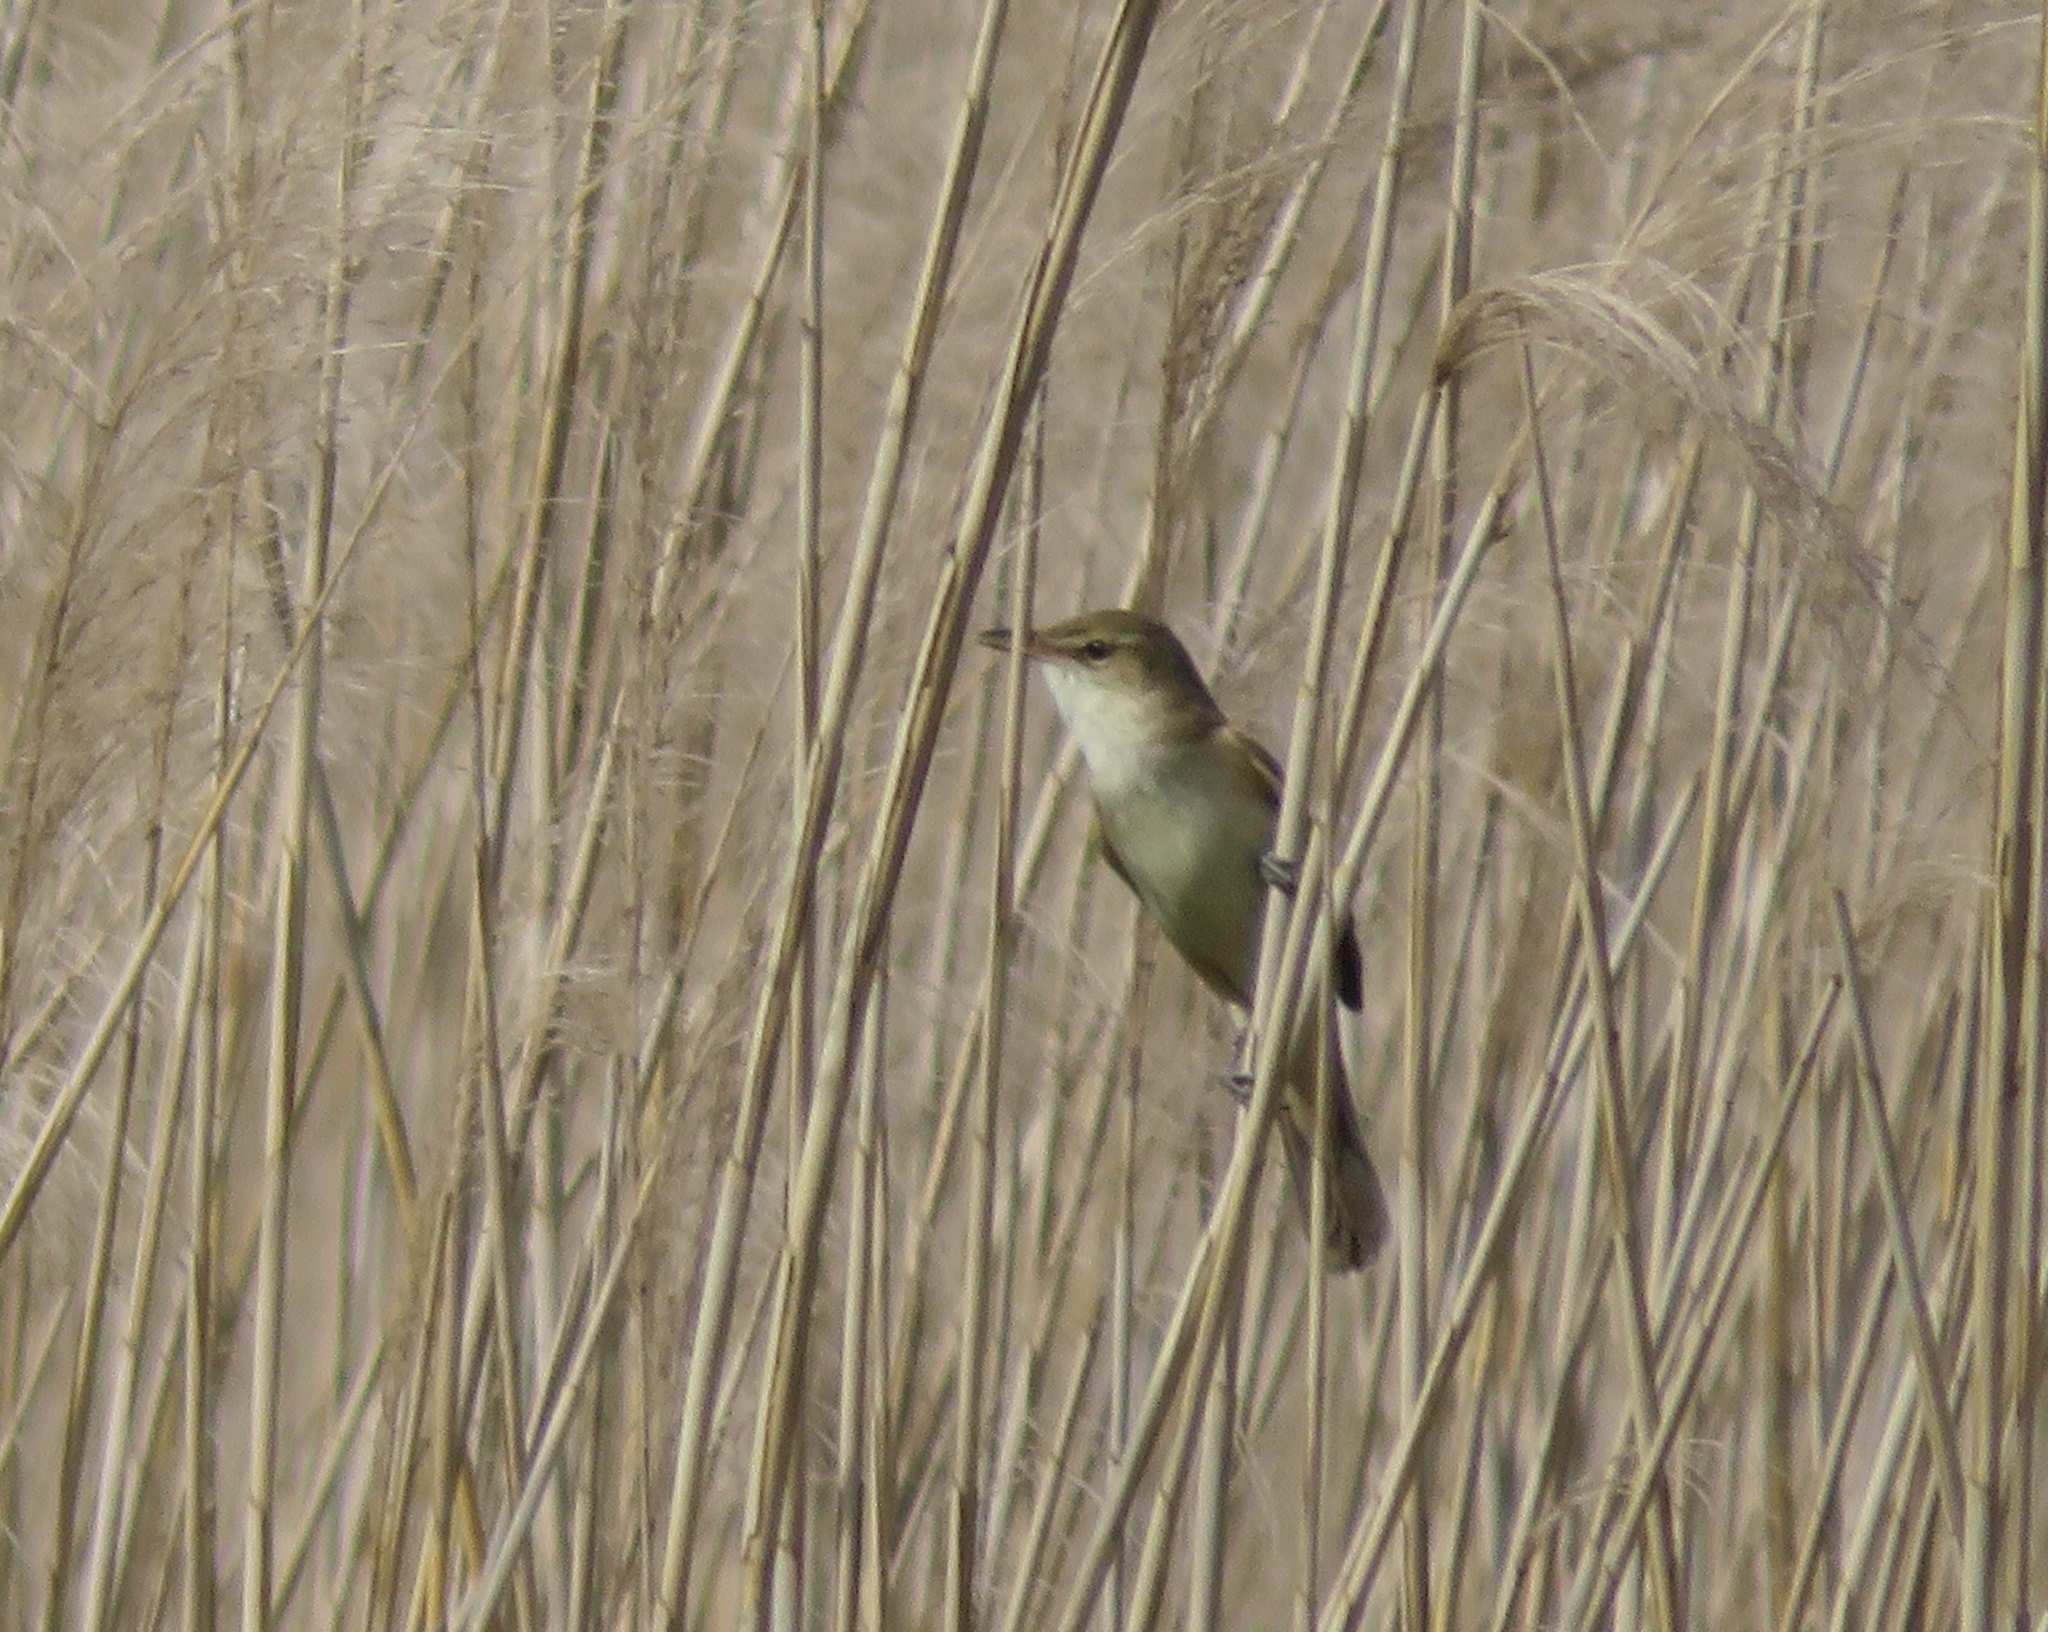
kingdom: Animalia
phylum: Chordata
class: Aves
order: Passeriformes
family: Acrocephalidae
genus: Acrocephalus
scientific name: Acrocephalus orientalis
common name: Oriental reed warbler
